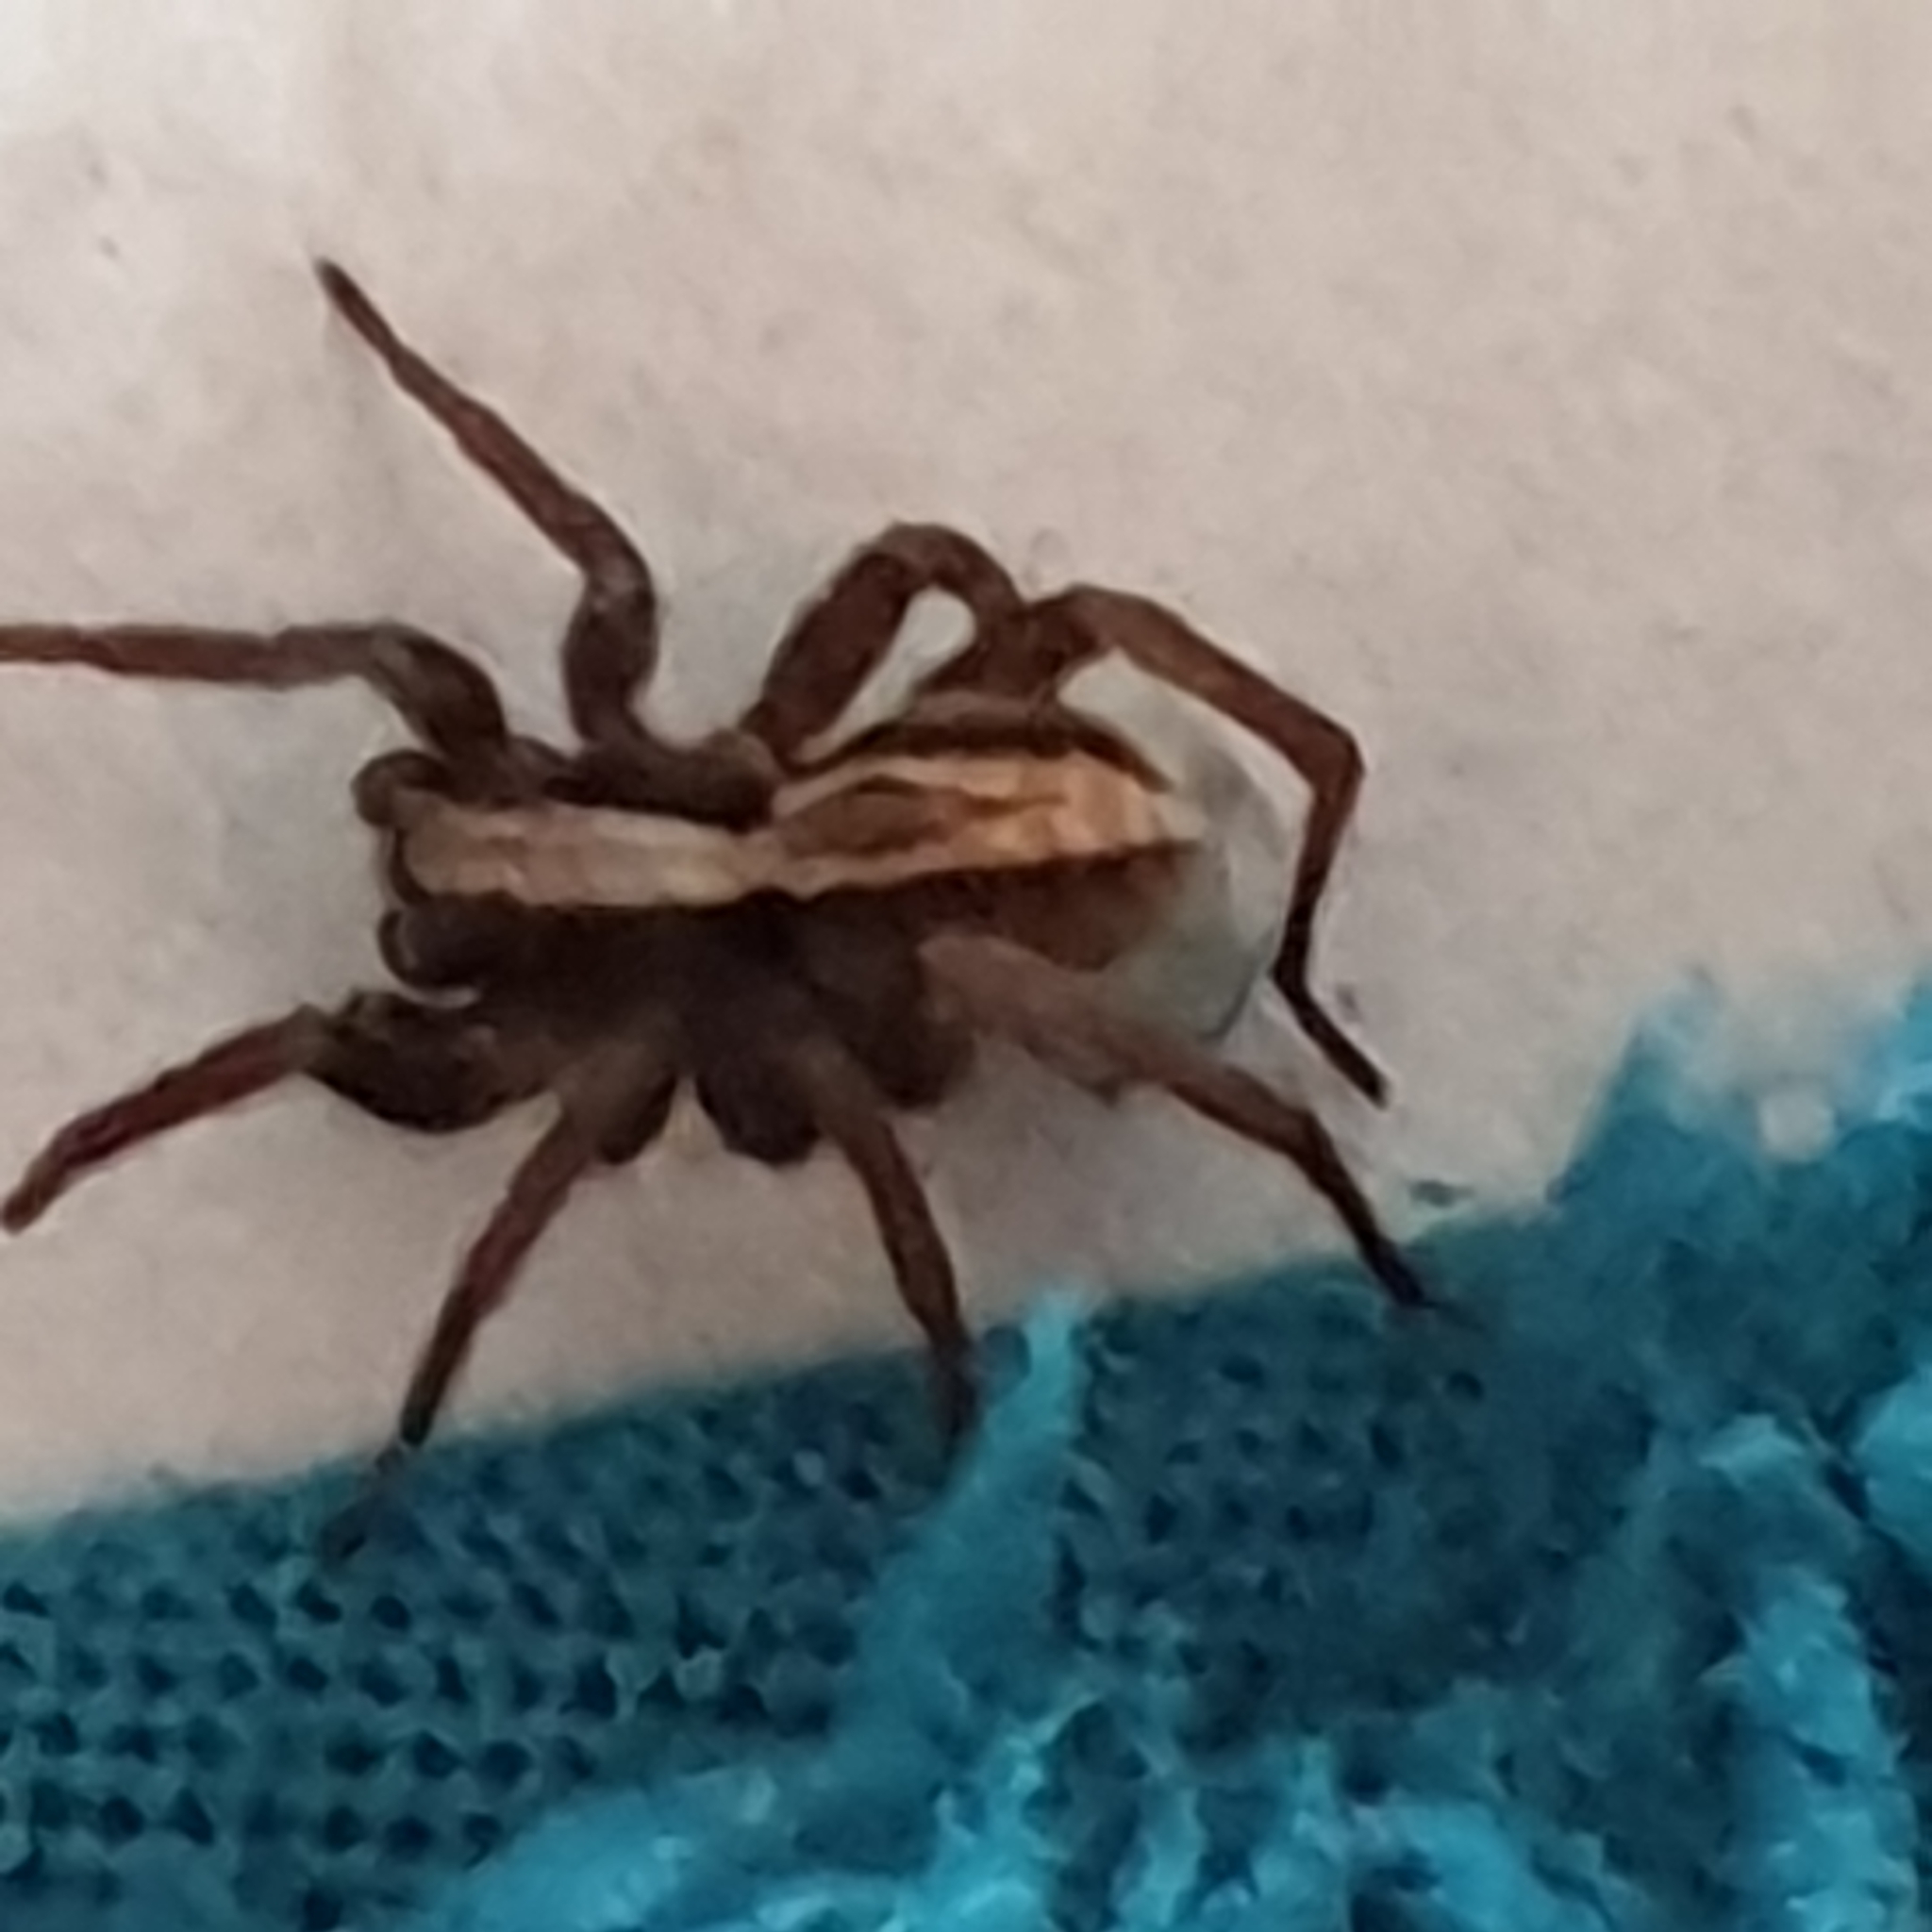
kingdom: Animalia
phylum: Arthropoda
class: Arachnida
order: Araneae
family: Lycosidae
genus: Alopecosa
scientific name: Alopecosa
